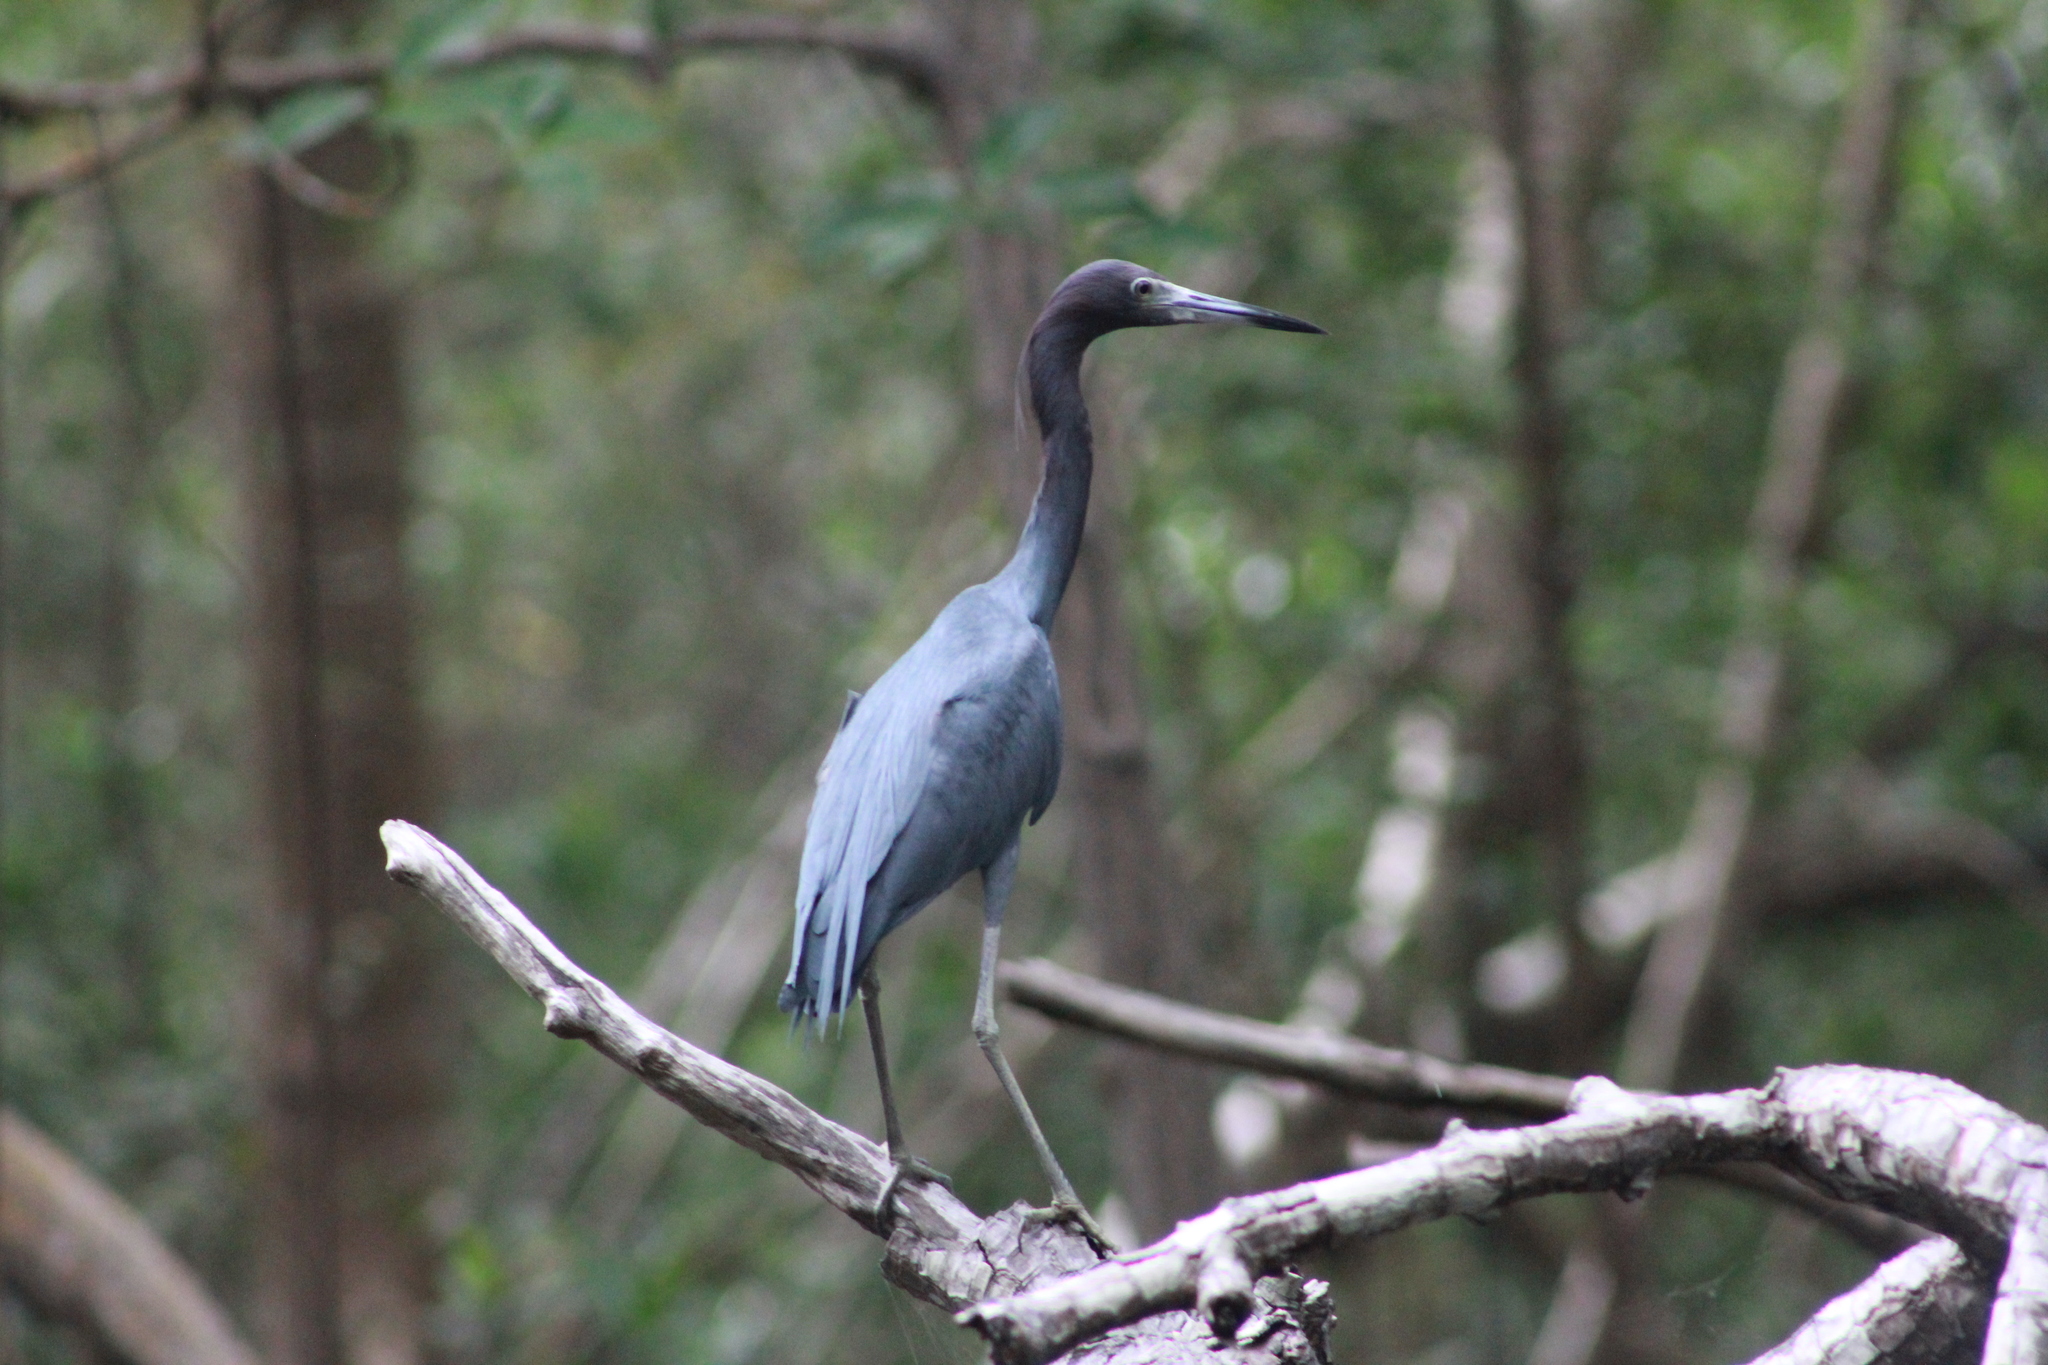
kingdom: Animalia
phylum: Chordata
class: Aves
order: Pelecaniformes
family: Ardeidae
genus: Egretta
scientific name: Egretta caerulea
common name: Little blue heron
